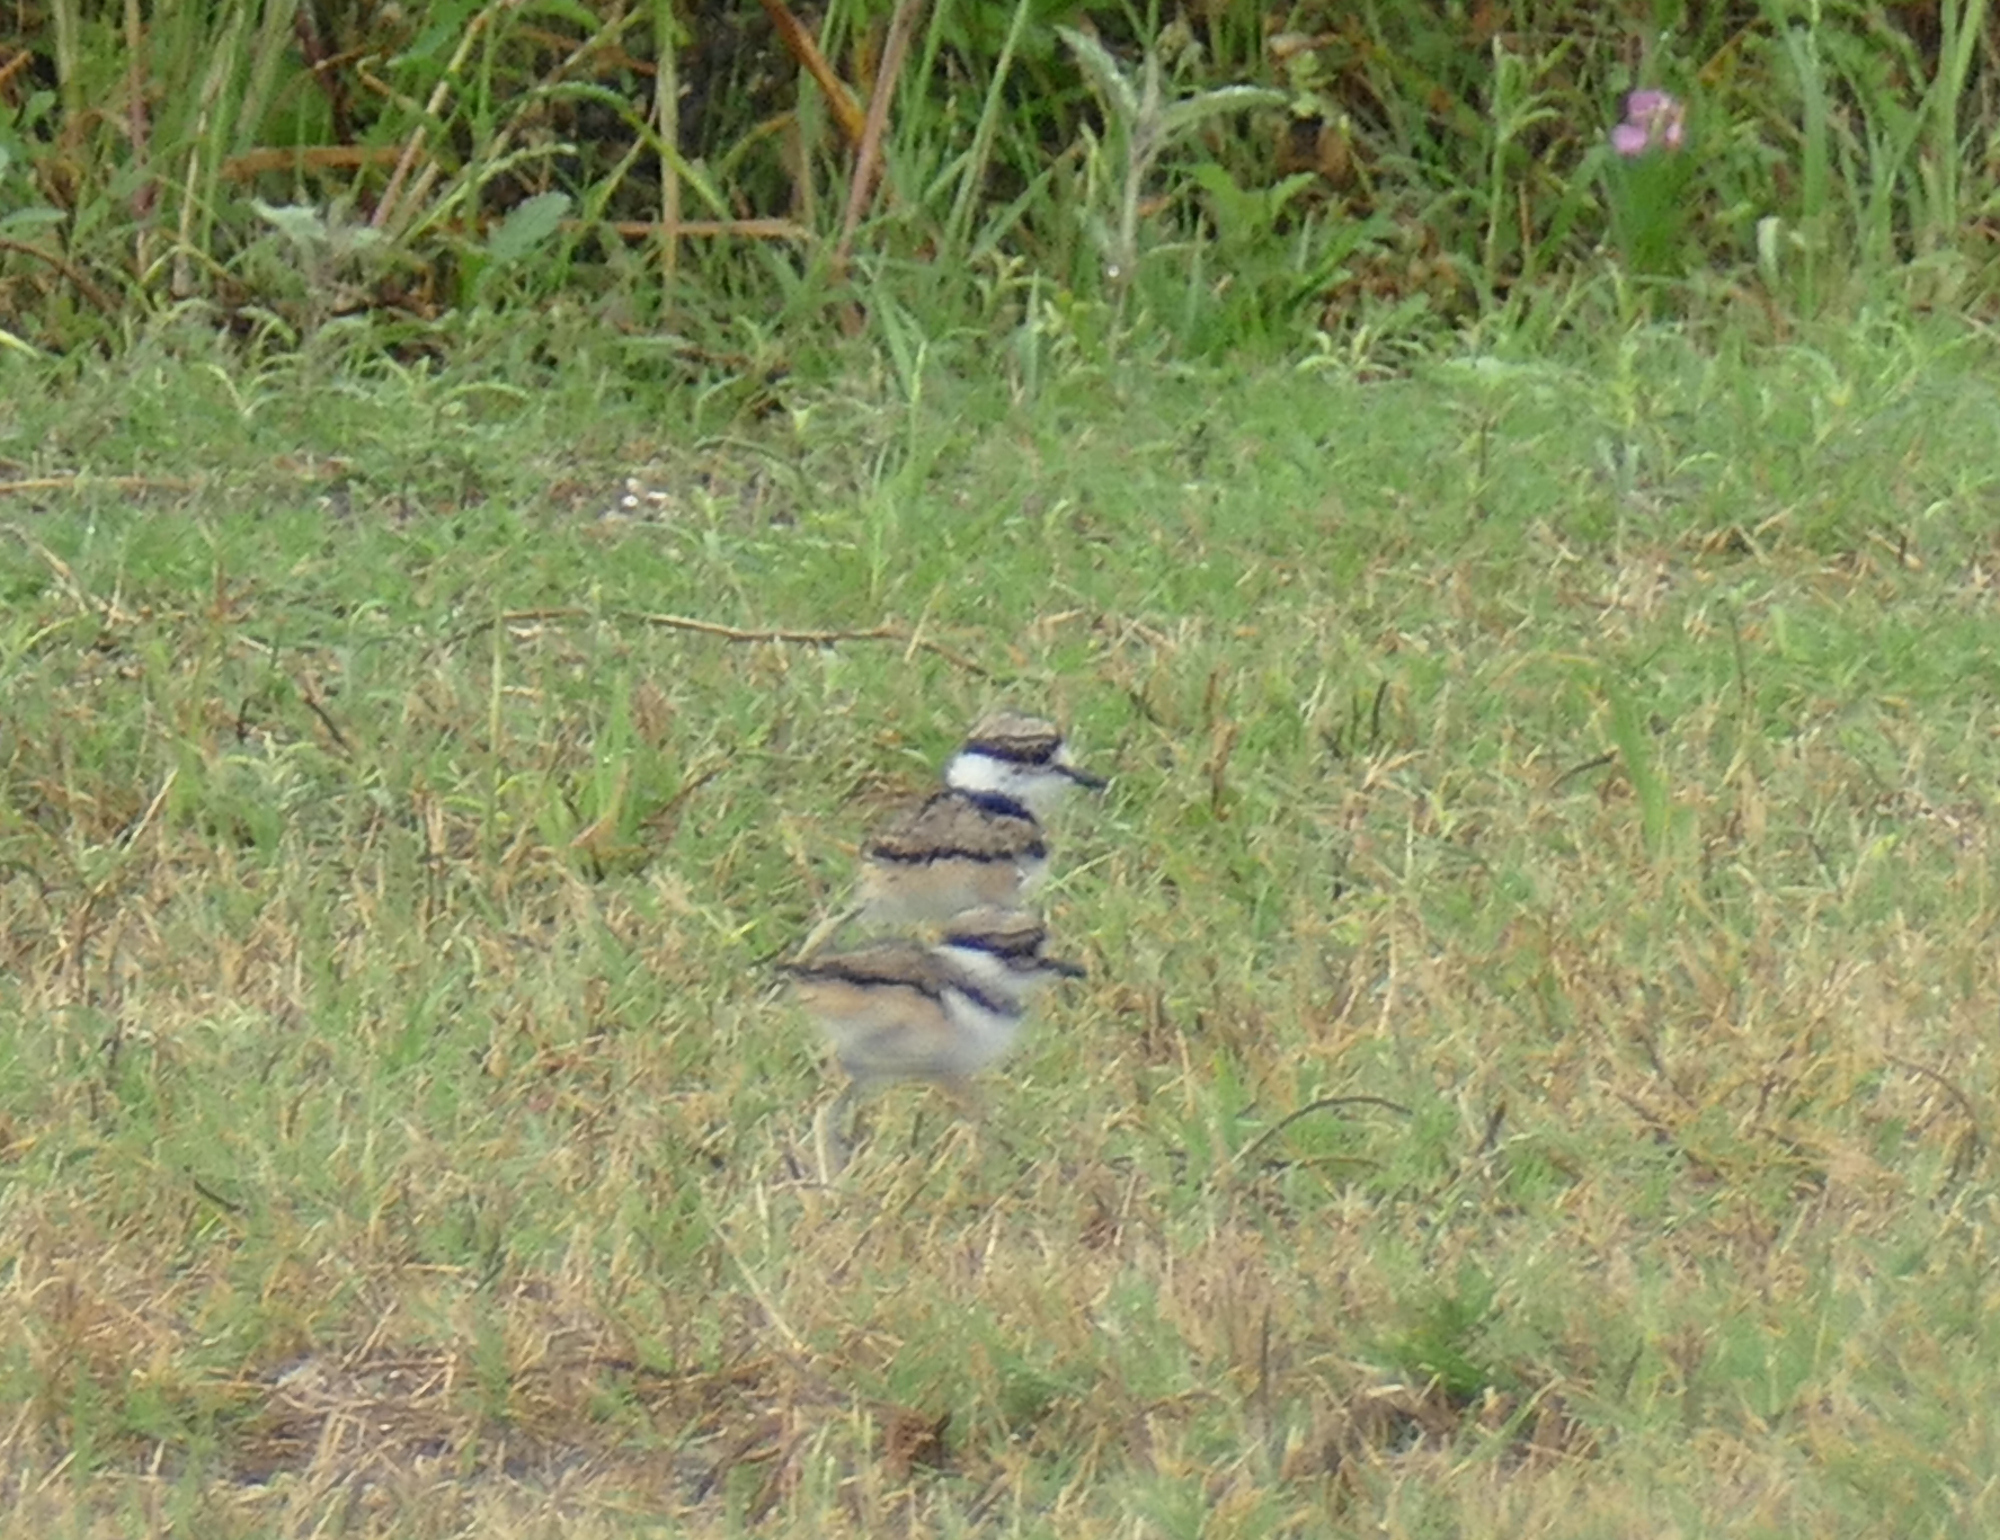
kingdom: Animalia
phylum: Chordata
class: Aves
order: Charadriiformes
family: Charadriidae
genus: Charadrius
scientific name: Charadrius vociferus
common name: Killdeer
